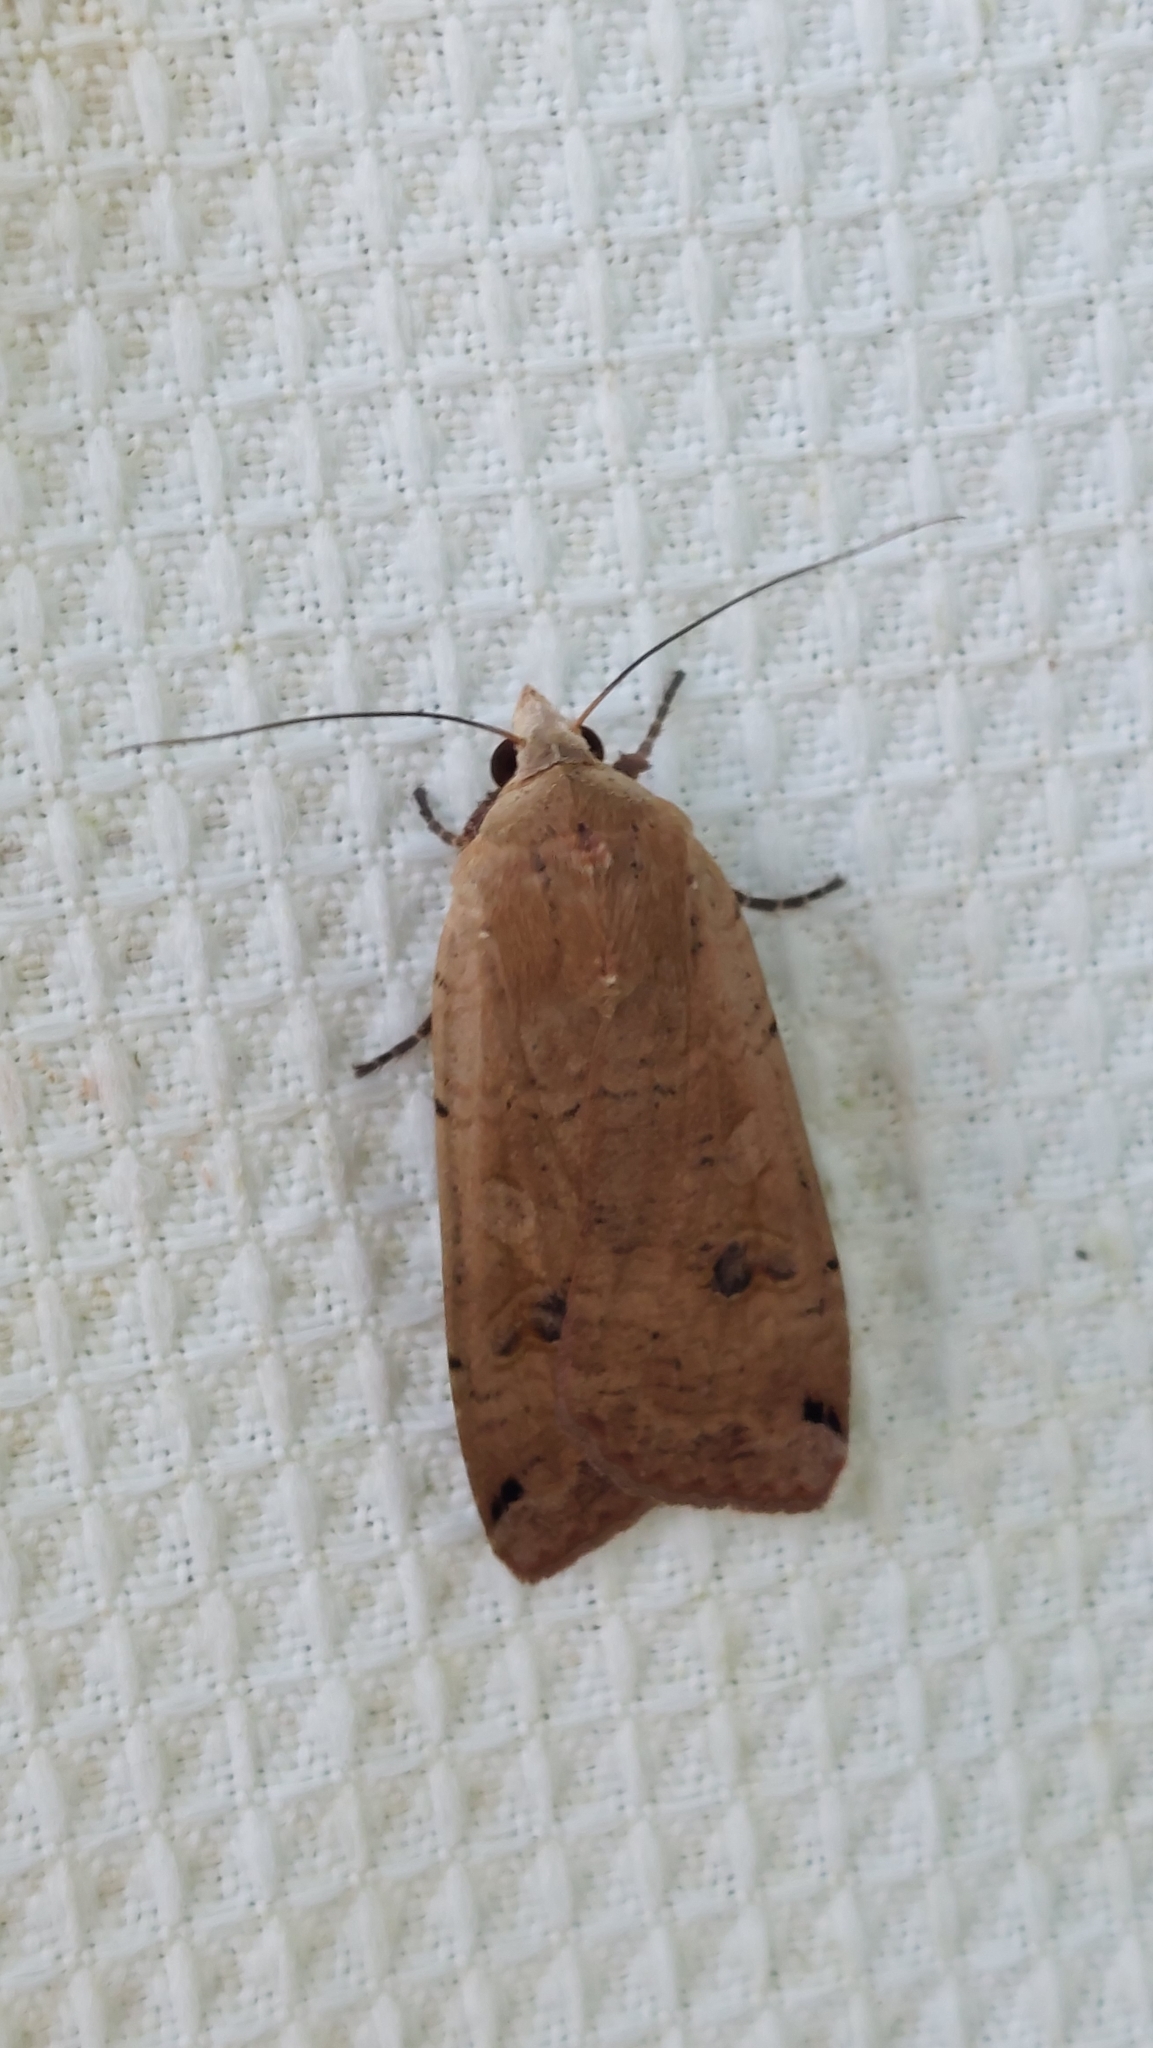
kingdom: Animalia
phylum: Arthropoda
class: Insecta
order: Lepidoptera
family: Noctuidae
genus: Noctua
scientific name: Noctua pronuba
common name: Large yellow underwing
